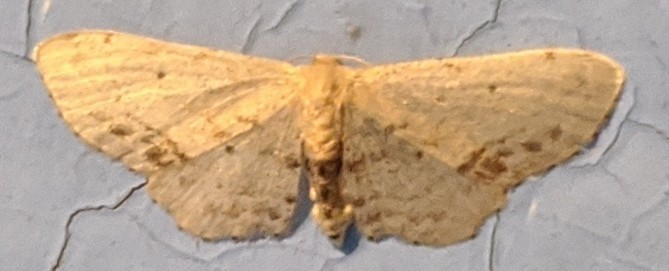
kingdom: Animalia
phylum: Arthropoda
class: Insecta
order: Lepidoptera
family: Geometridae
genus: Idaea
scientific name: Idaea dimidiata
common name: Single-dotted wave
